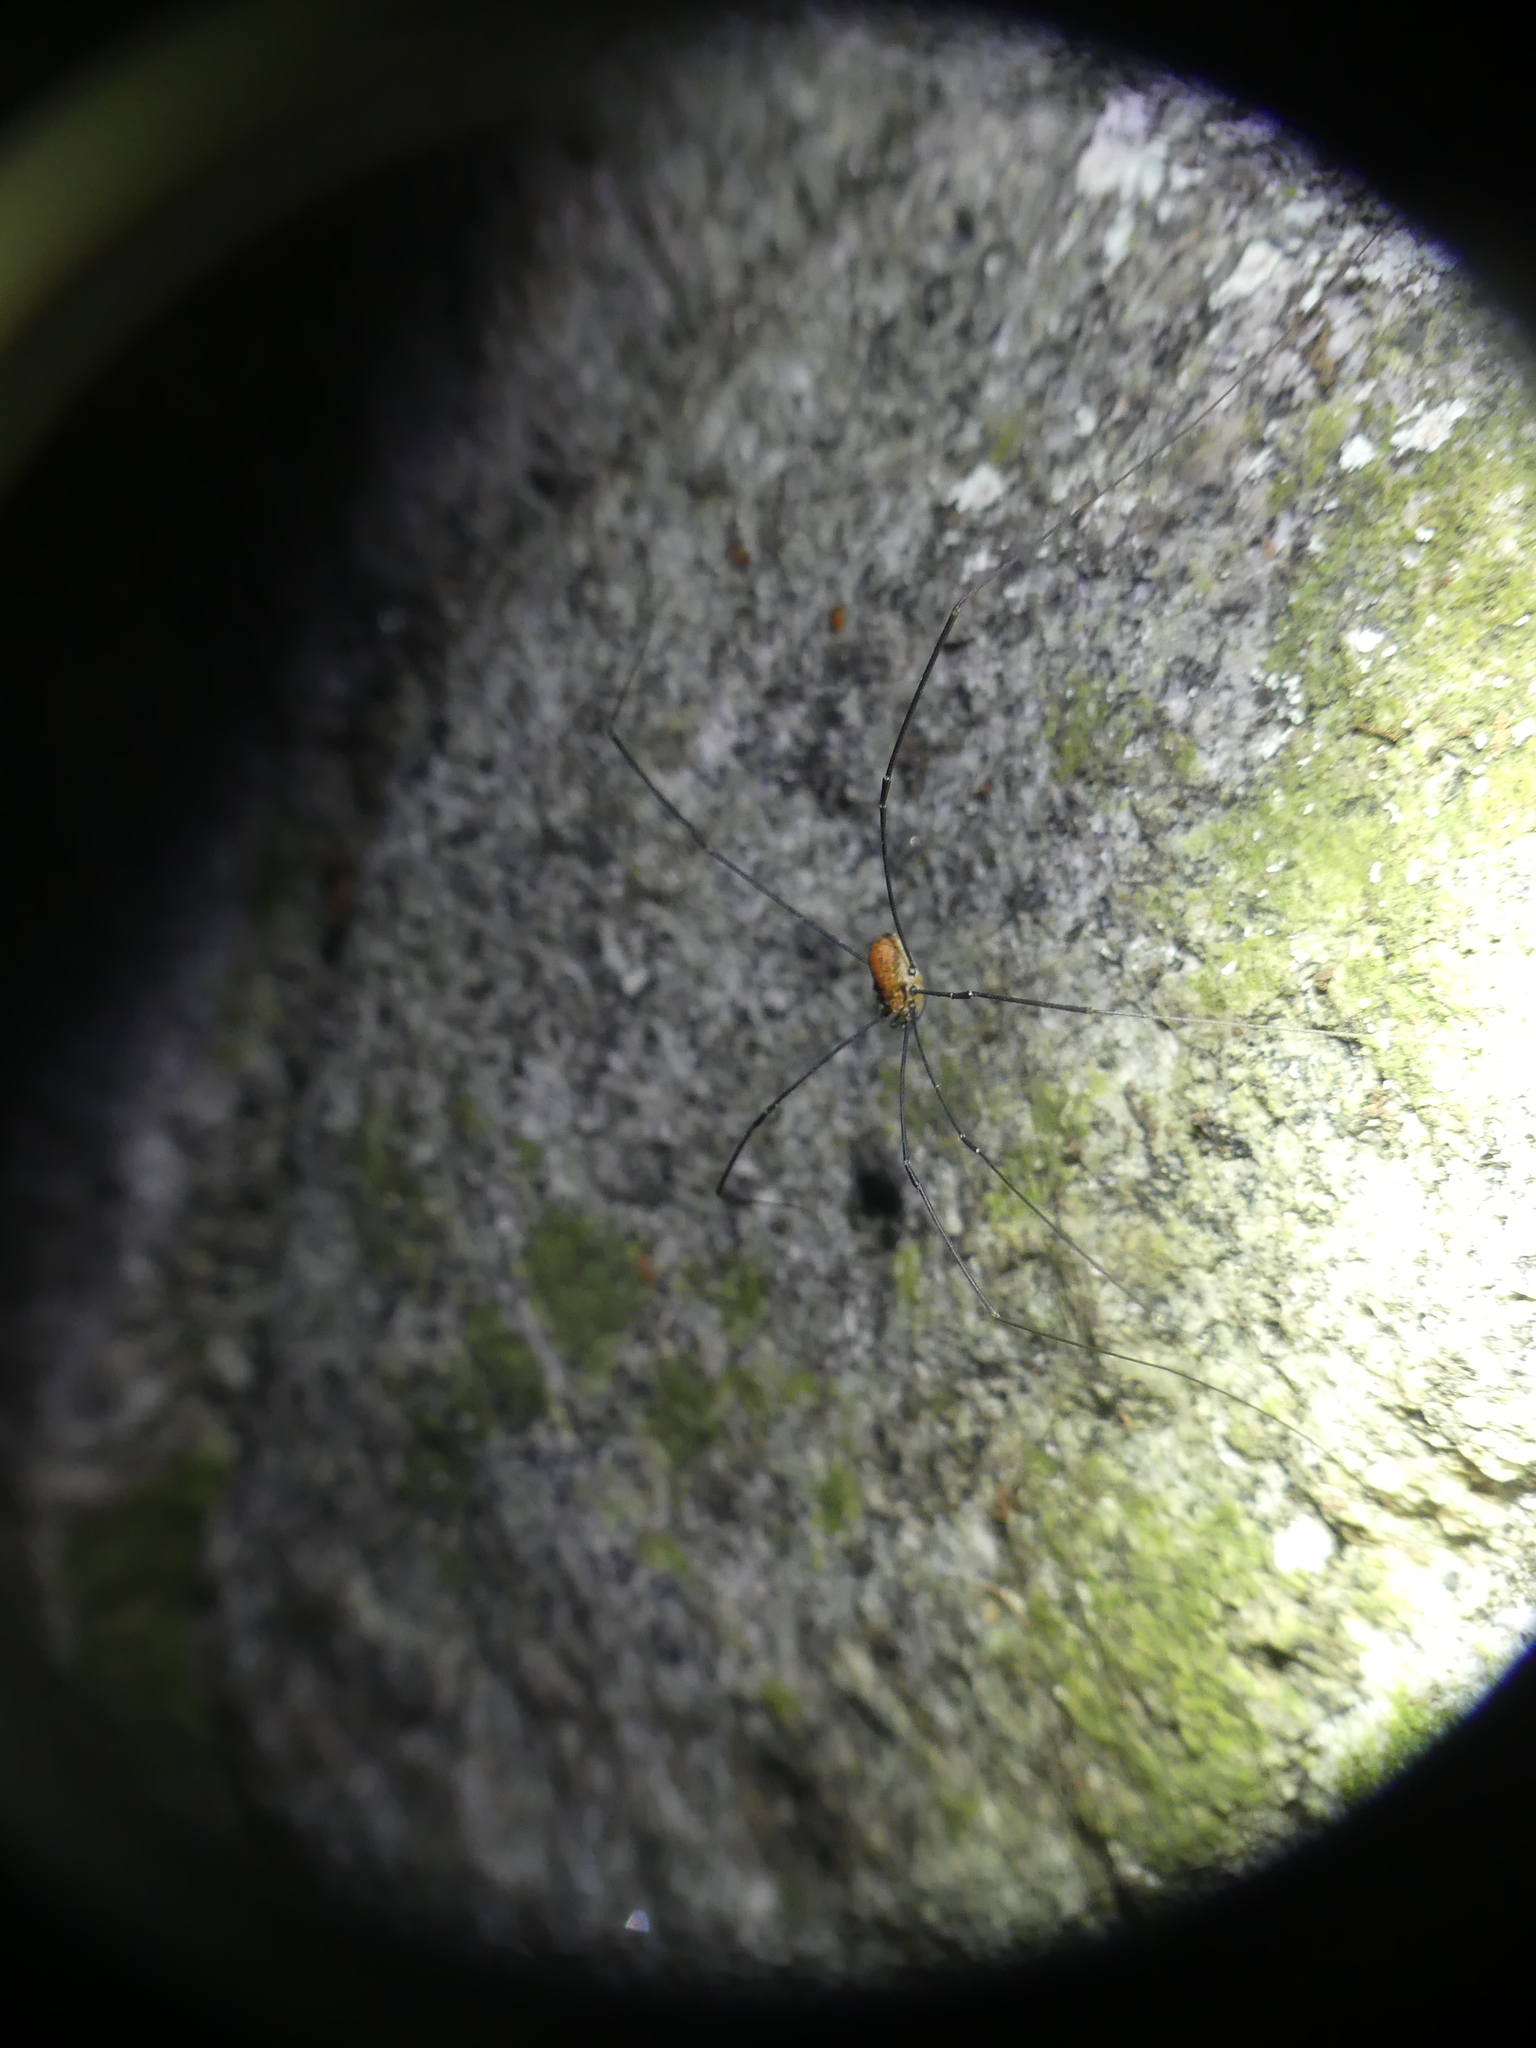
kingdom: Animalia
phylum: Arthropoda
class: Arachnida
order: Opiliones
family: Sclerosomatidae
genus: Leiobunum
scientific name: Leiobunum limbatum
